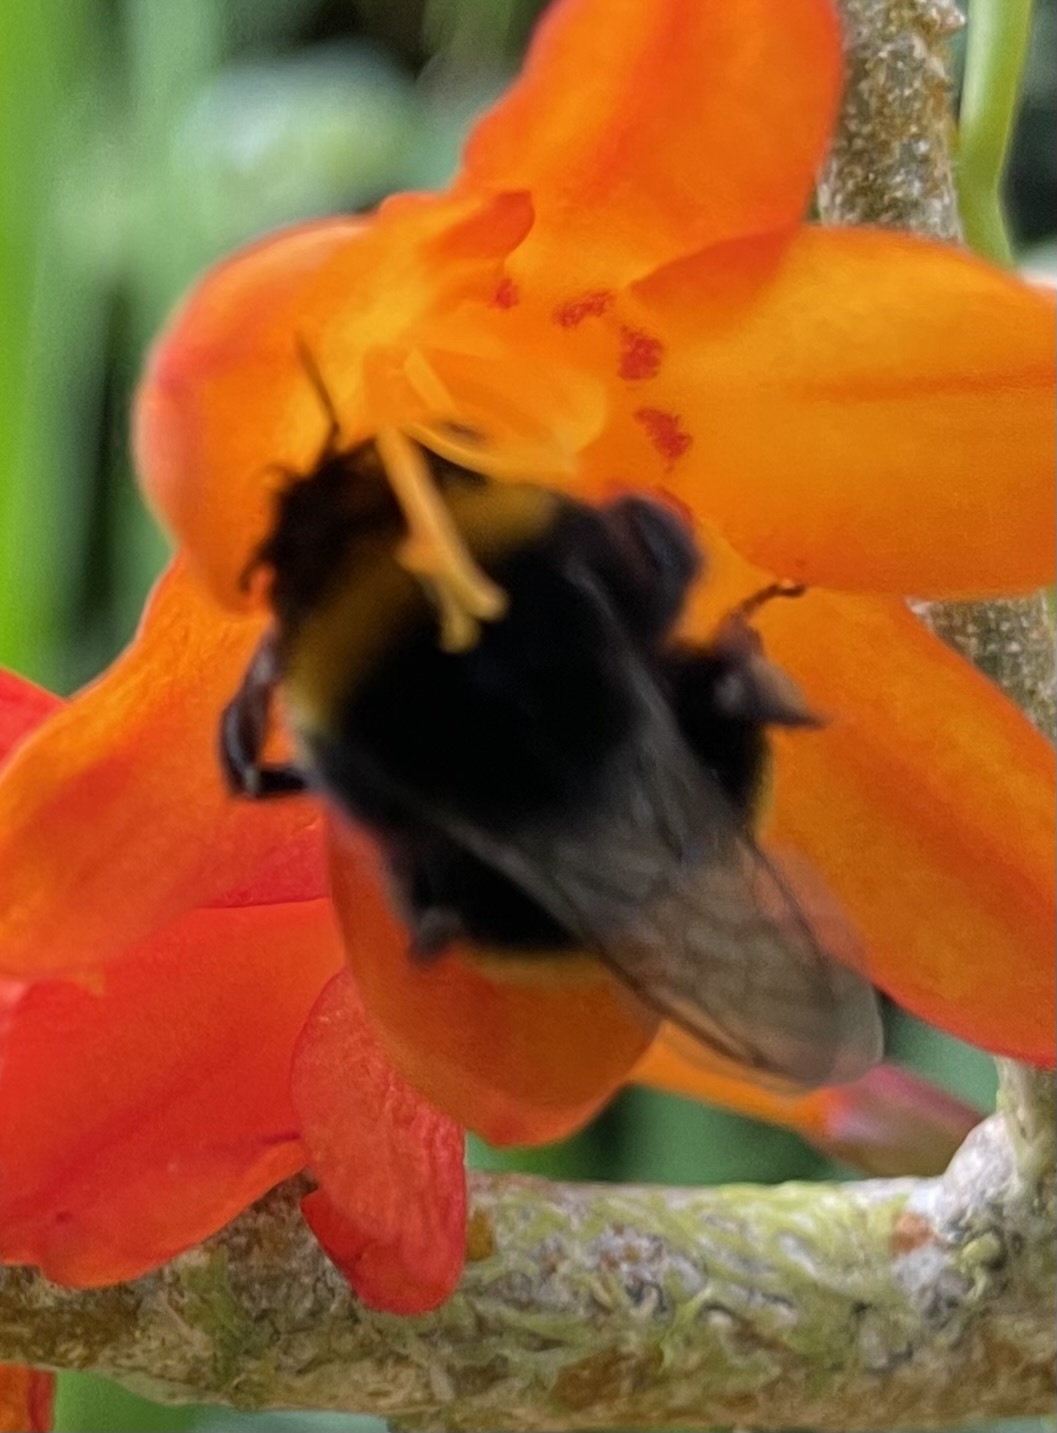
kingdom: Animalia
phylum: Arthropoda
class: Insecta
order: Hymenoptera
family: Apidae
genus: Bombus
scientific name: Bombus terrestris
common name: Buff-tailed bumblebee
